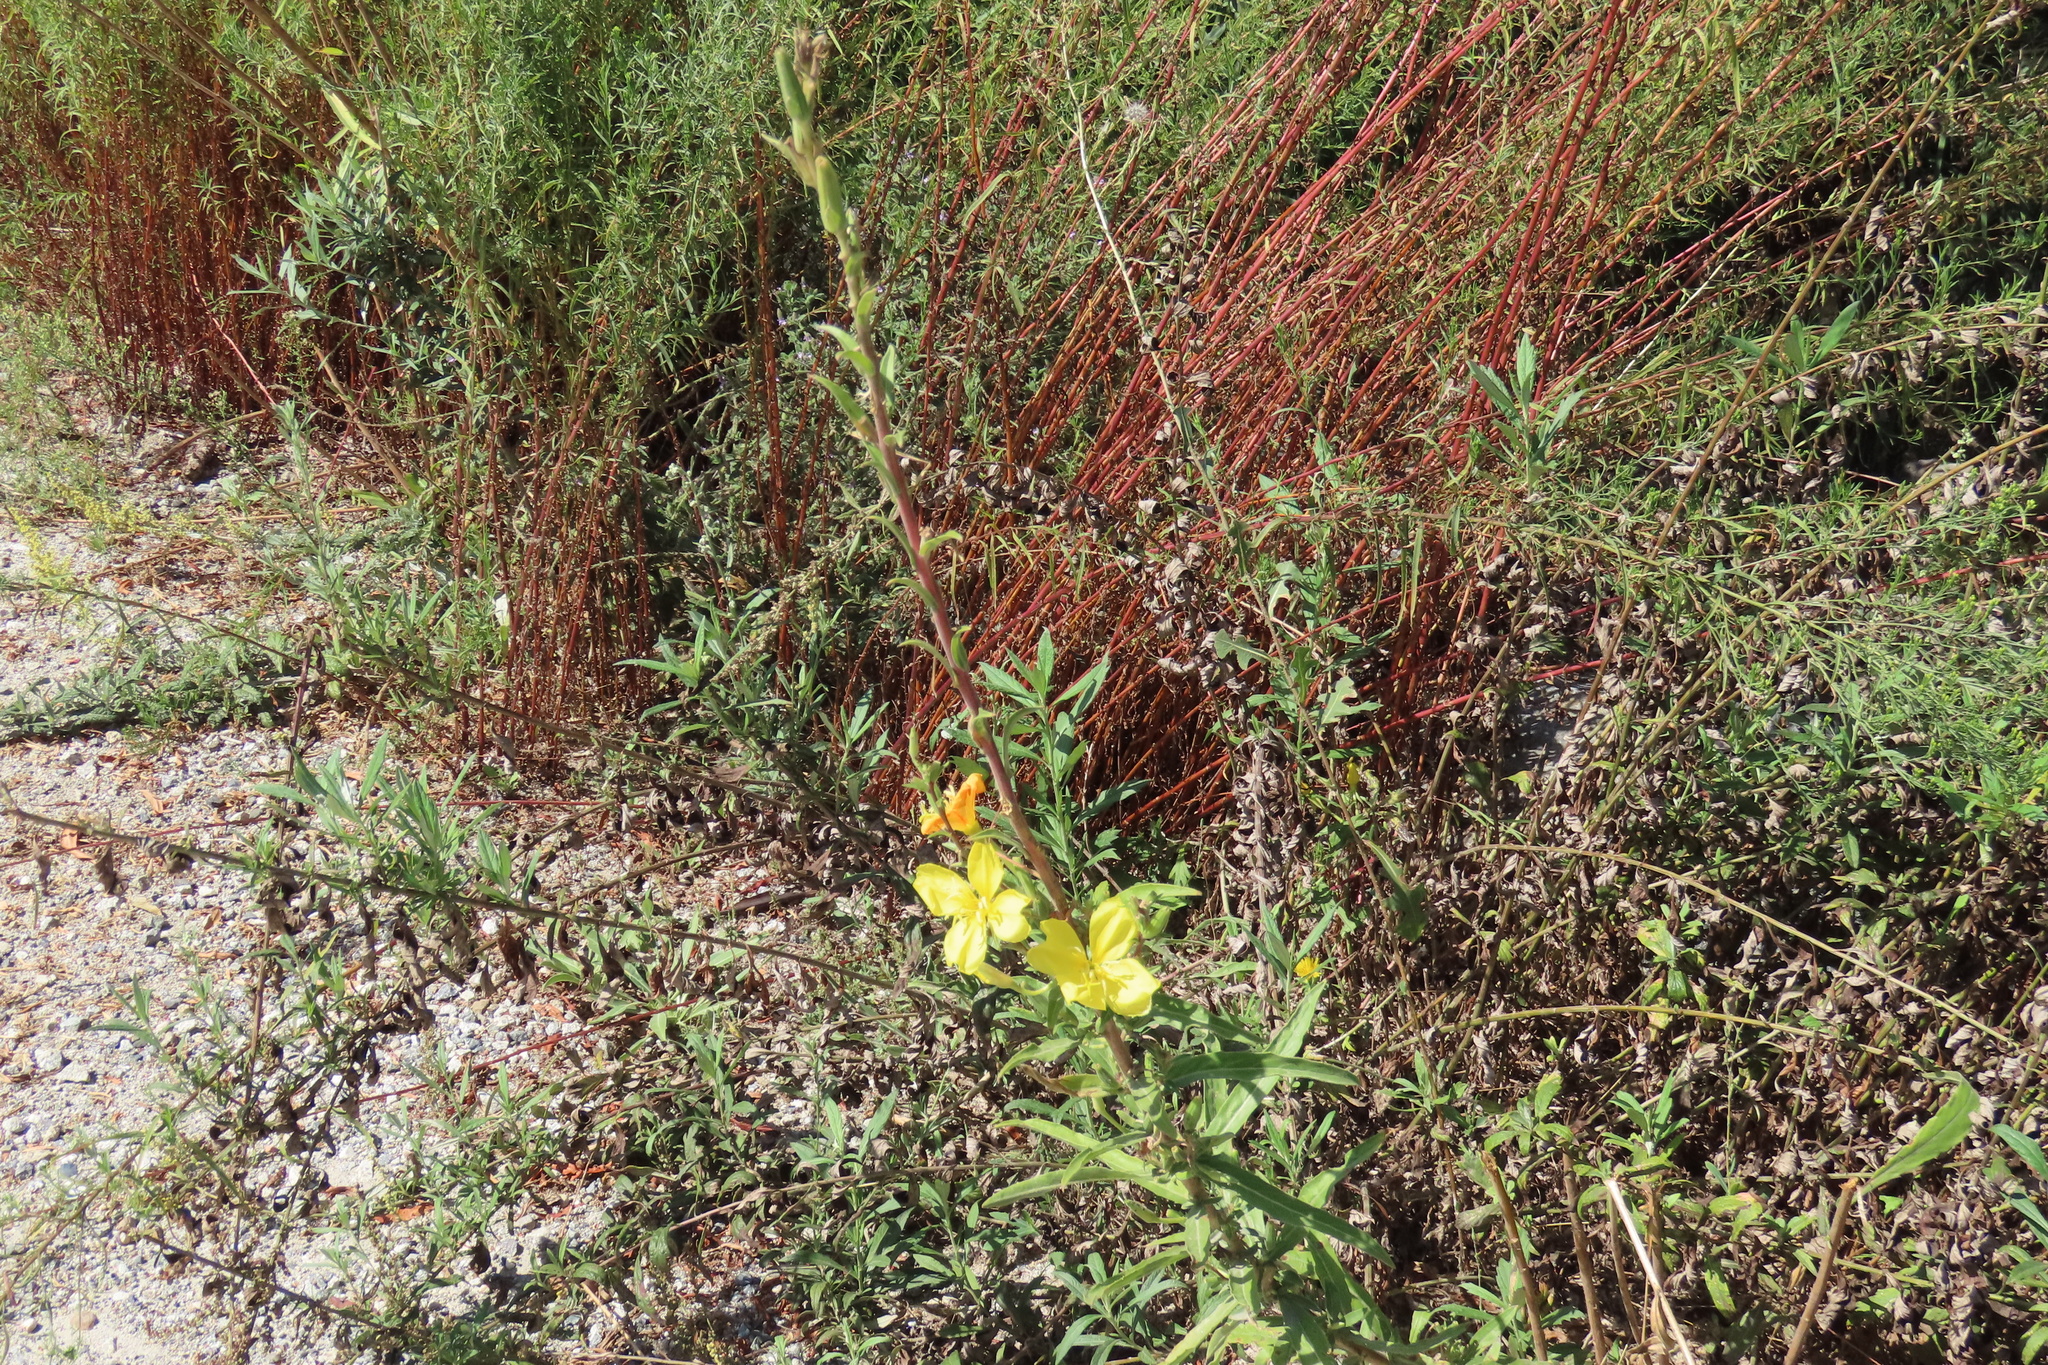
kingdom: Plantae
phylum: Tracheophyta
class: Magnoliopsida
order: Myrtales
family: Onagraceae
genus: Oenothera
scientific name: Oenothera elata
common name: Hooker's evening-primrose
